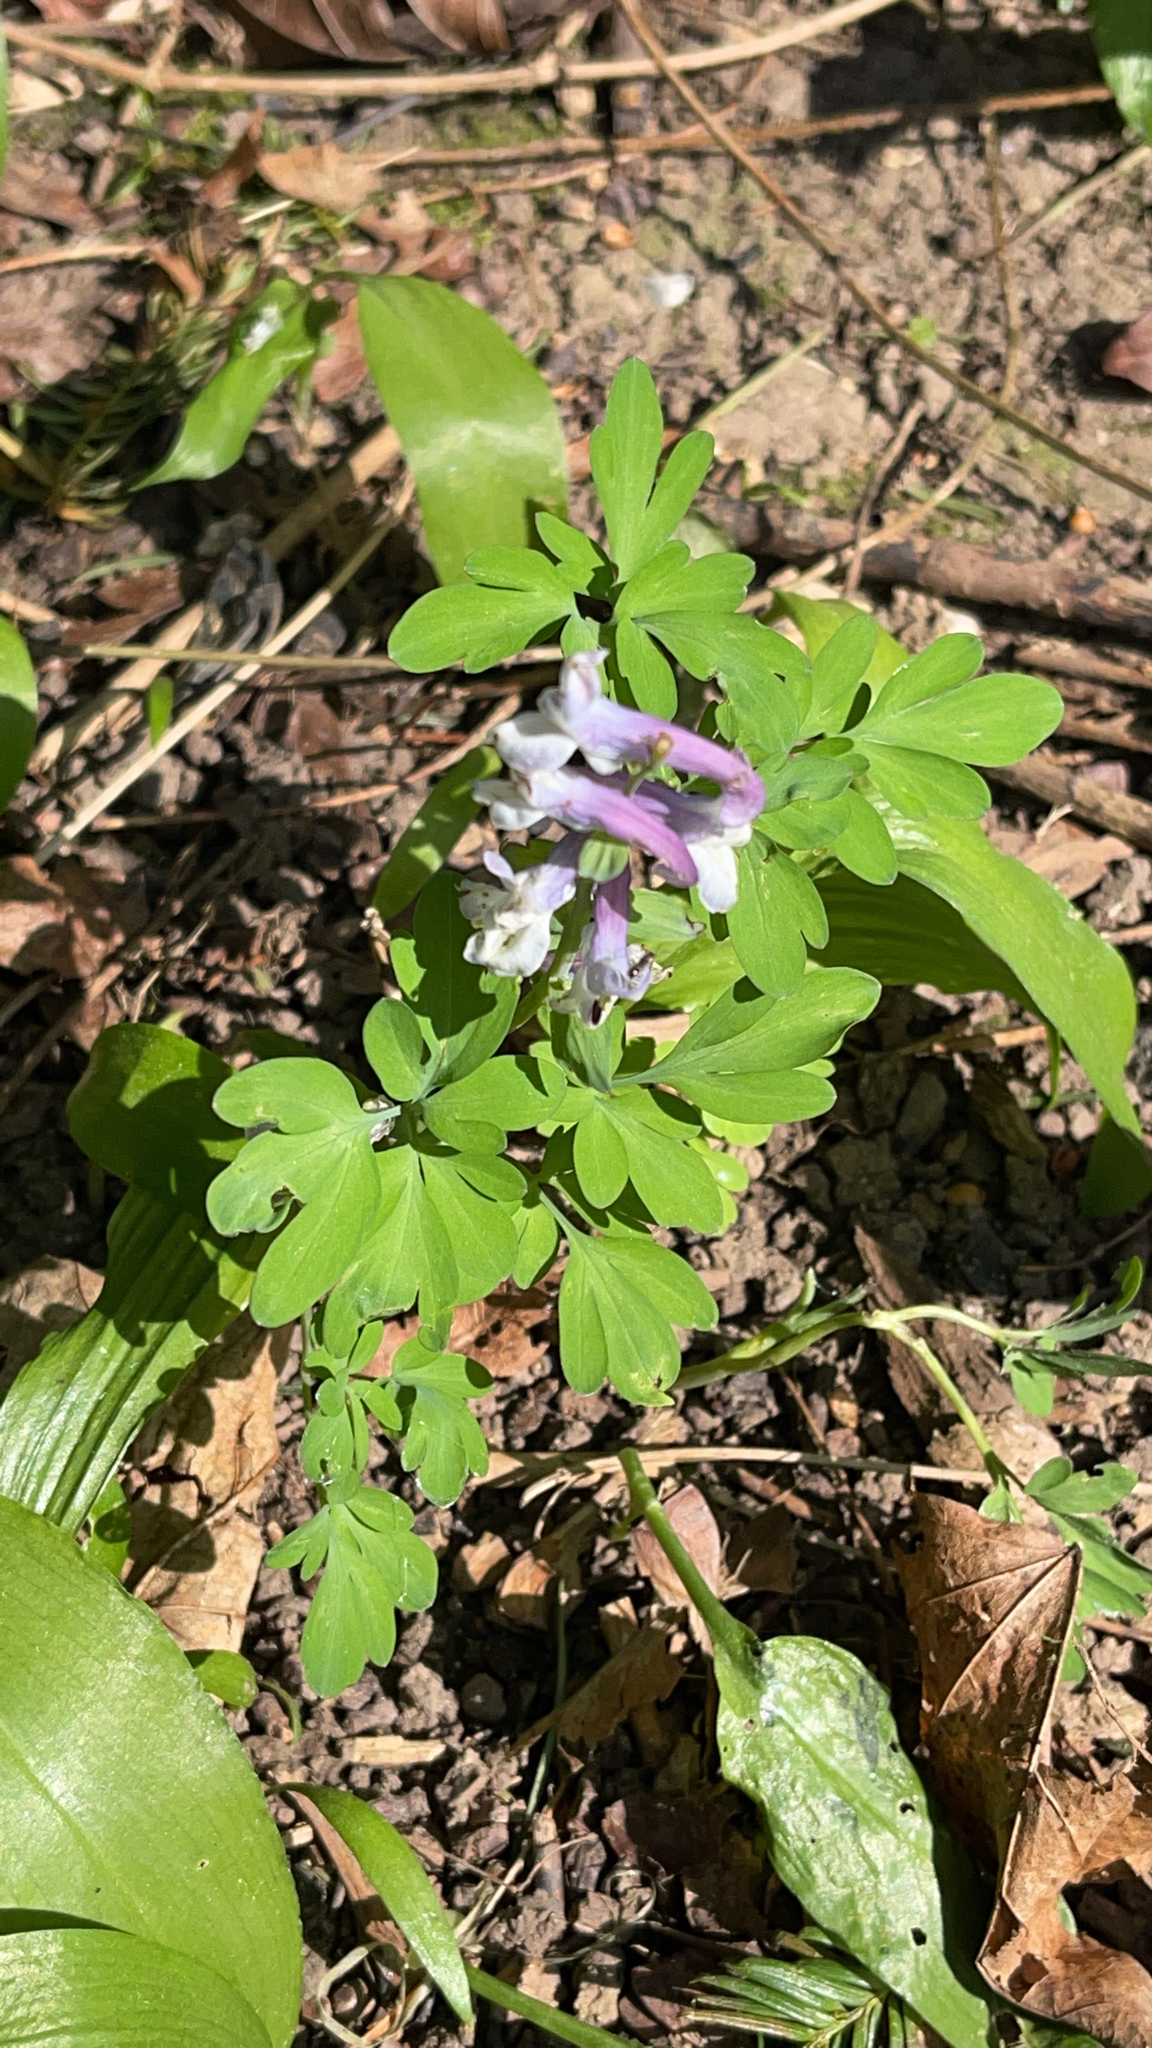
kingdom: Plantae
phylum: Tracheophyta
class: Magnoliopsida
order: Ranunculales
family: Papaveraceae
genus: Corydalis
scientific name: Corydalis cava
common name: Hollowroot
